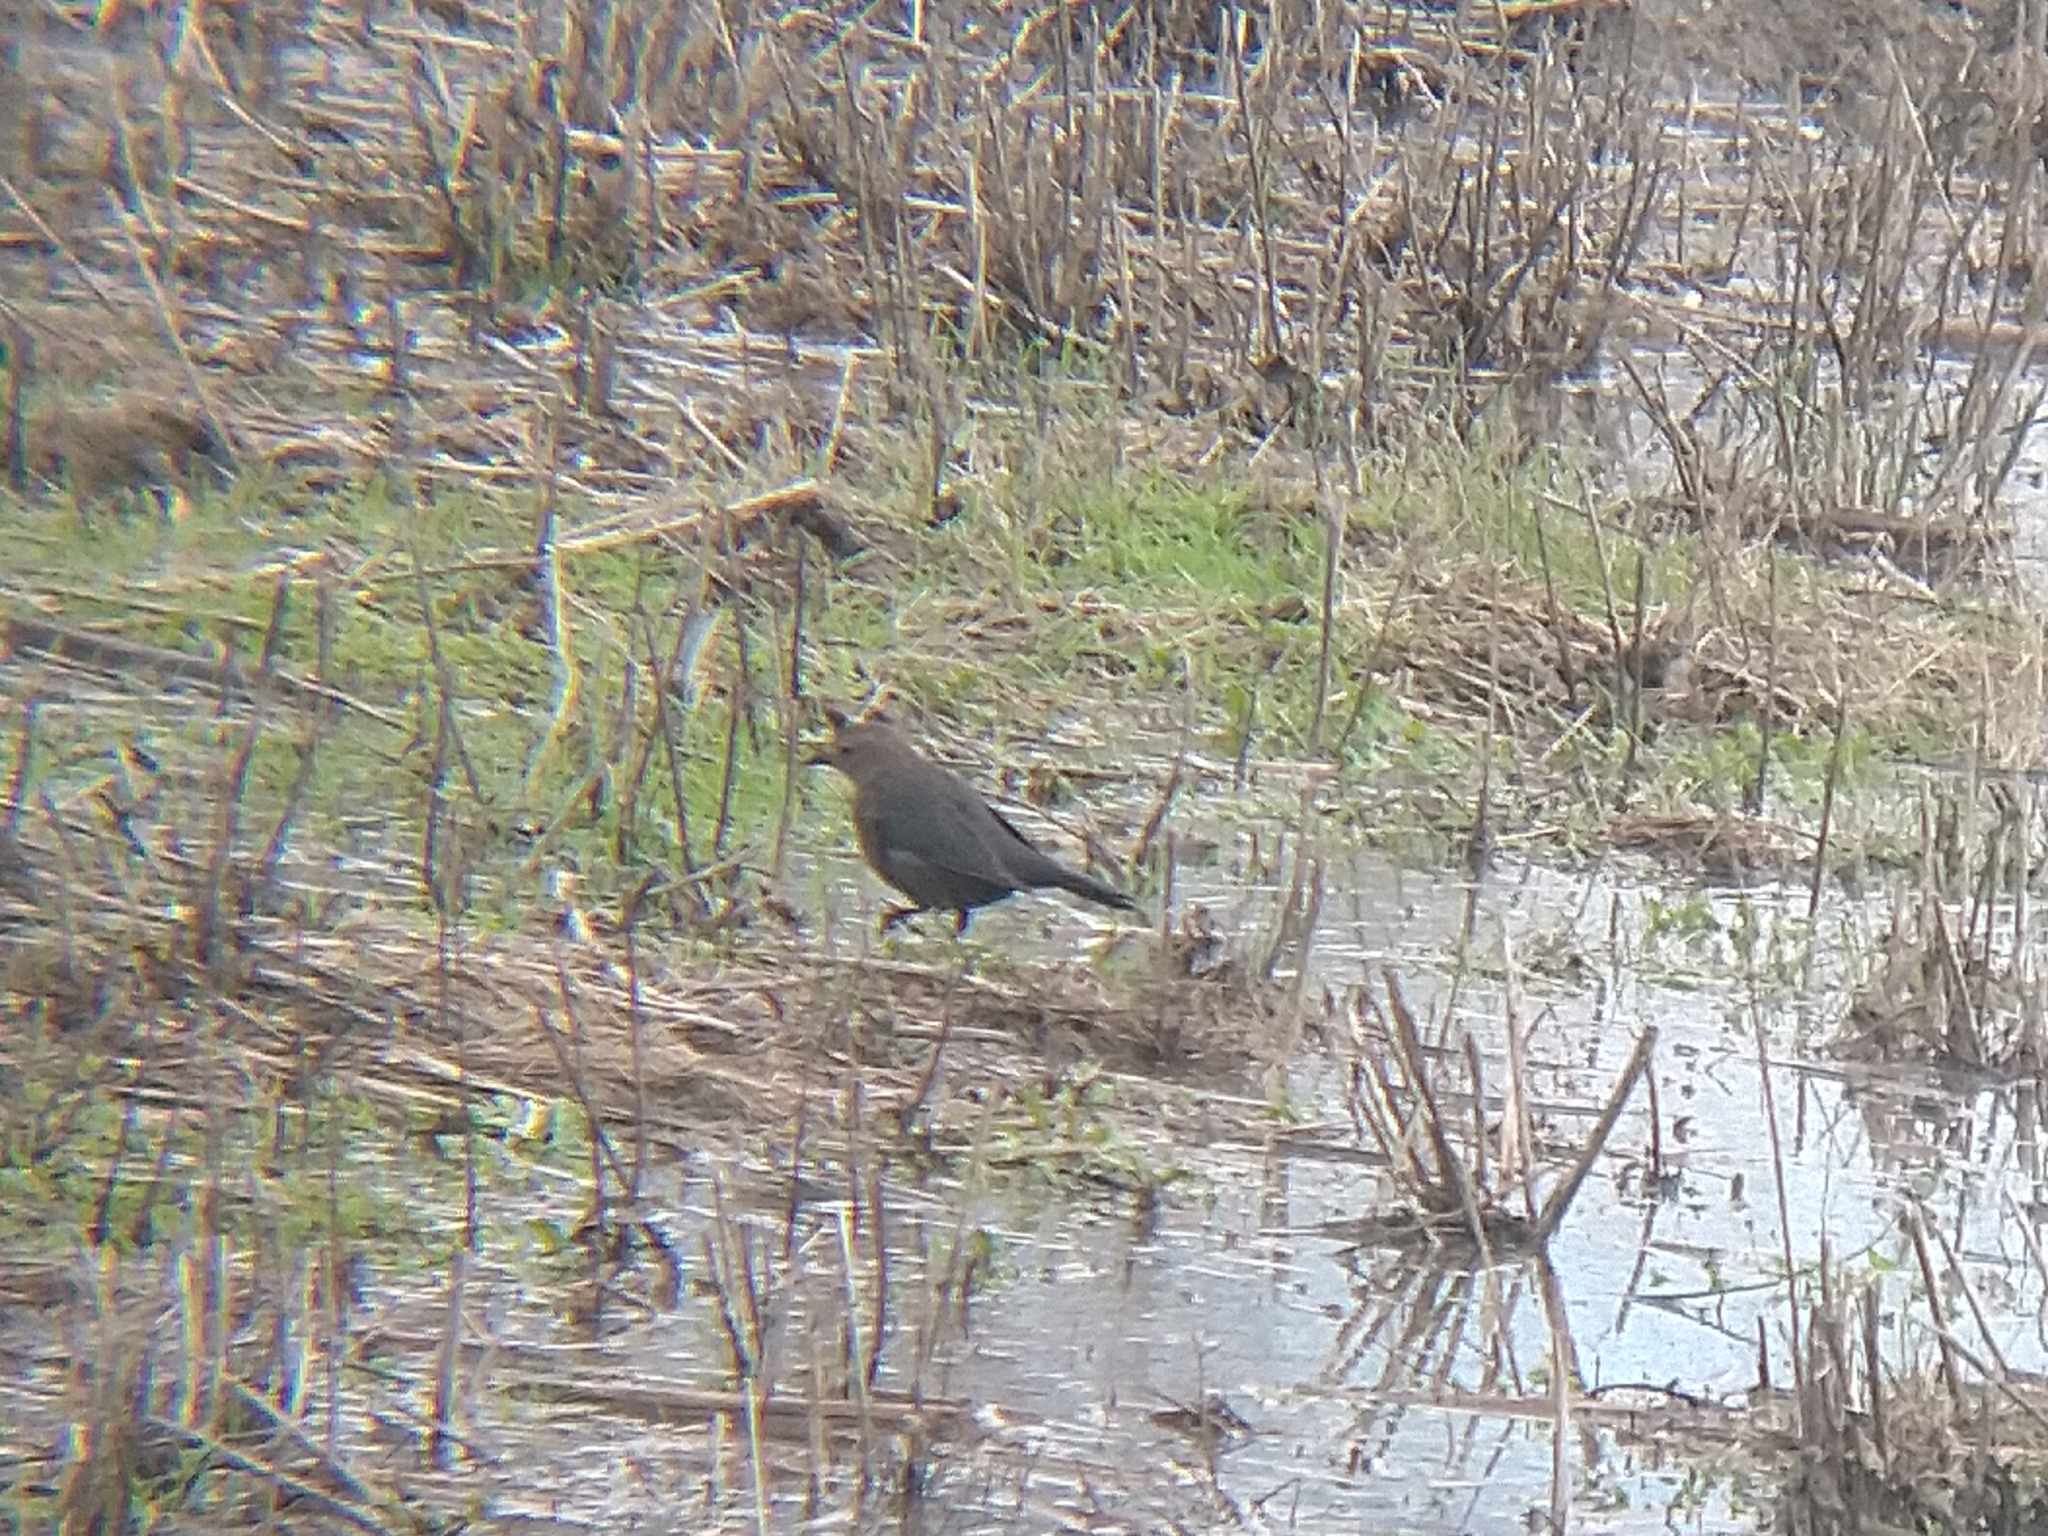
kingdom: Animalia
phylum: Chordata
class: Aves
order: Passeriformes
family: Icteridae
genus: Euphagus
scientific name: Euphagus cyanocephalus
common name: Brewer's blackbird
